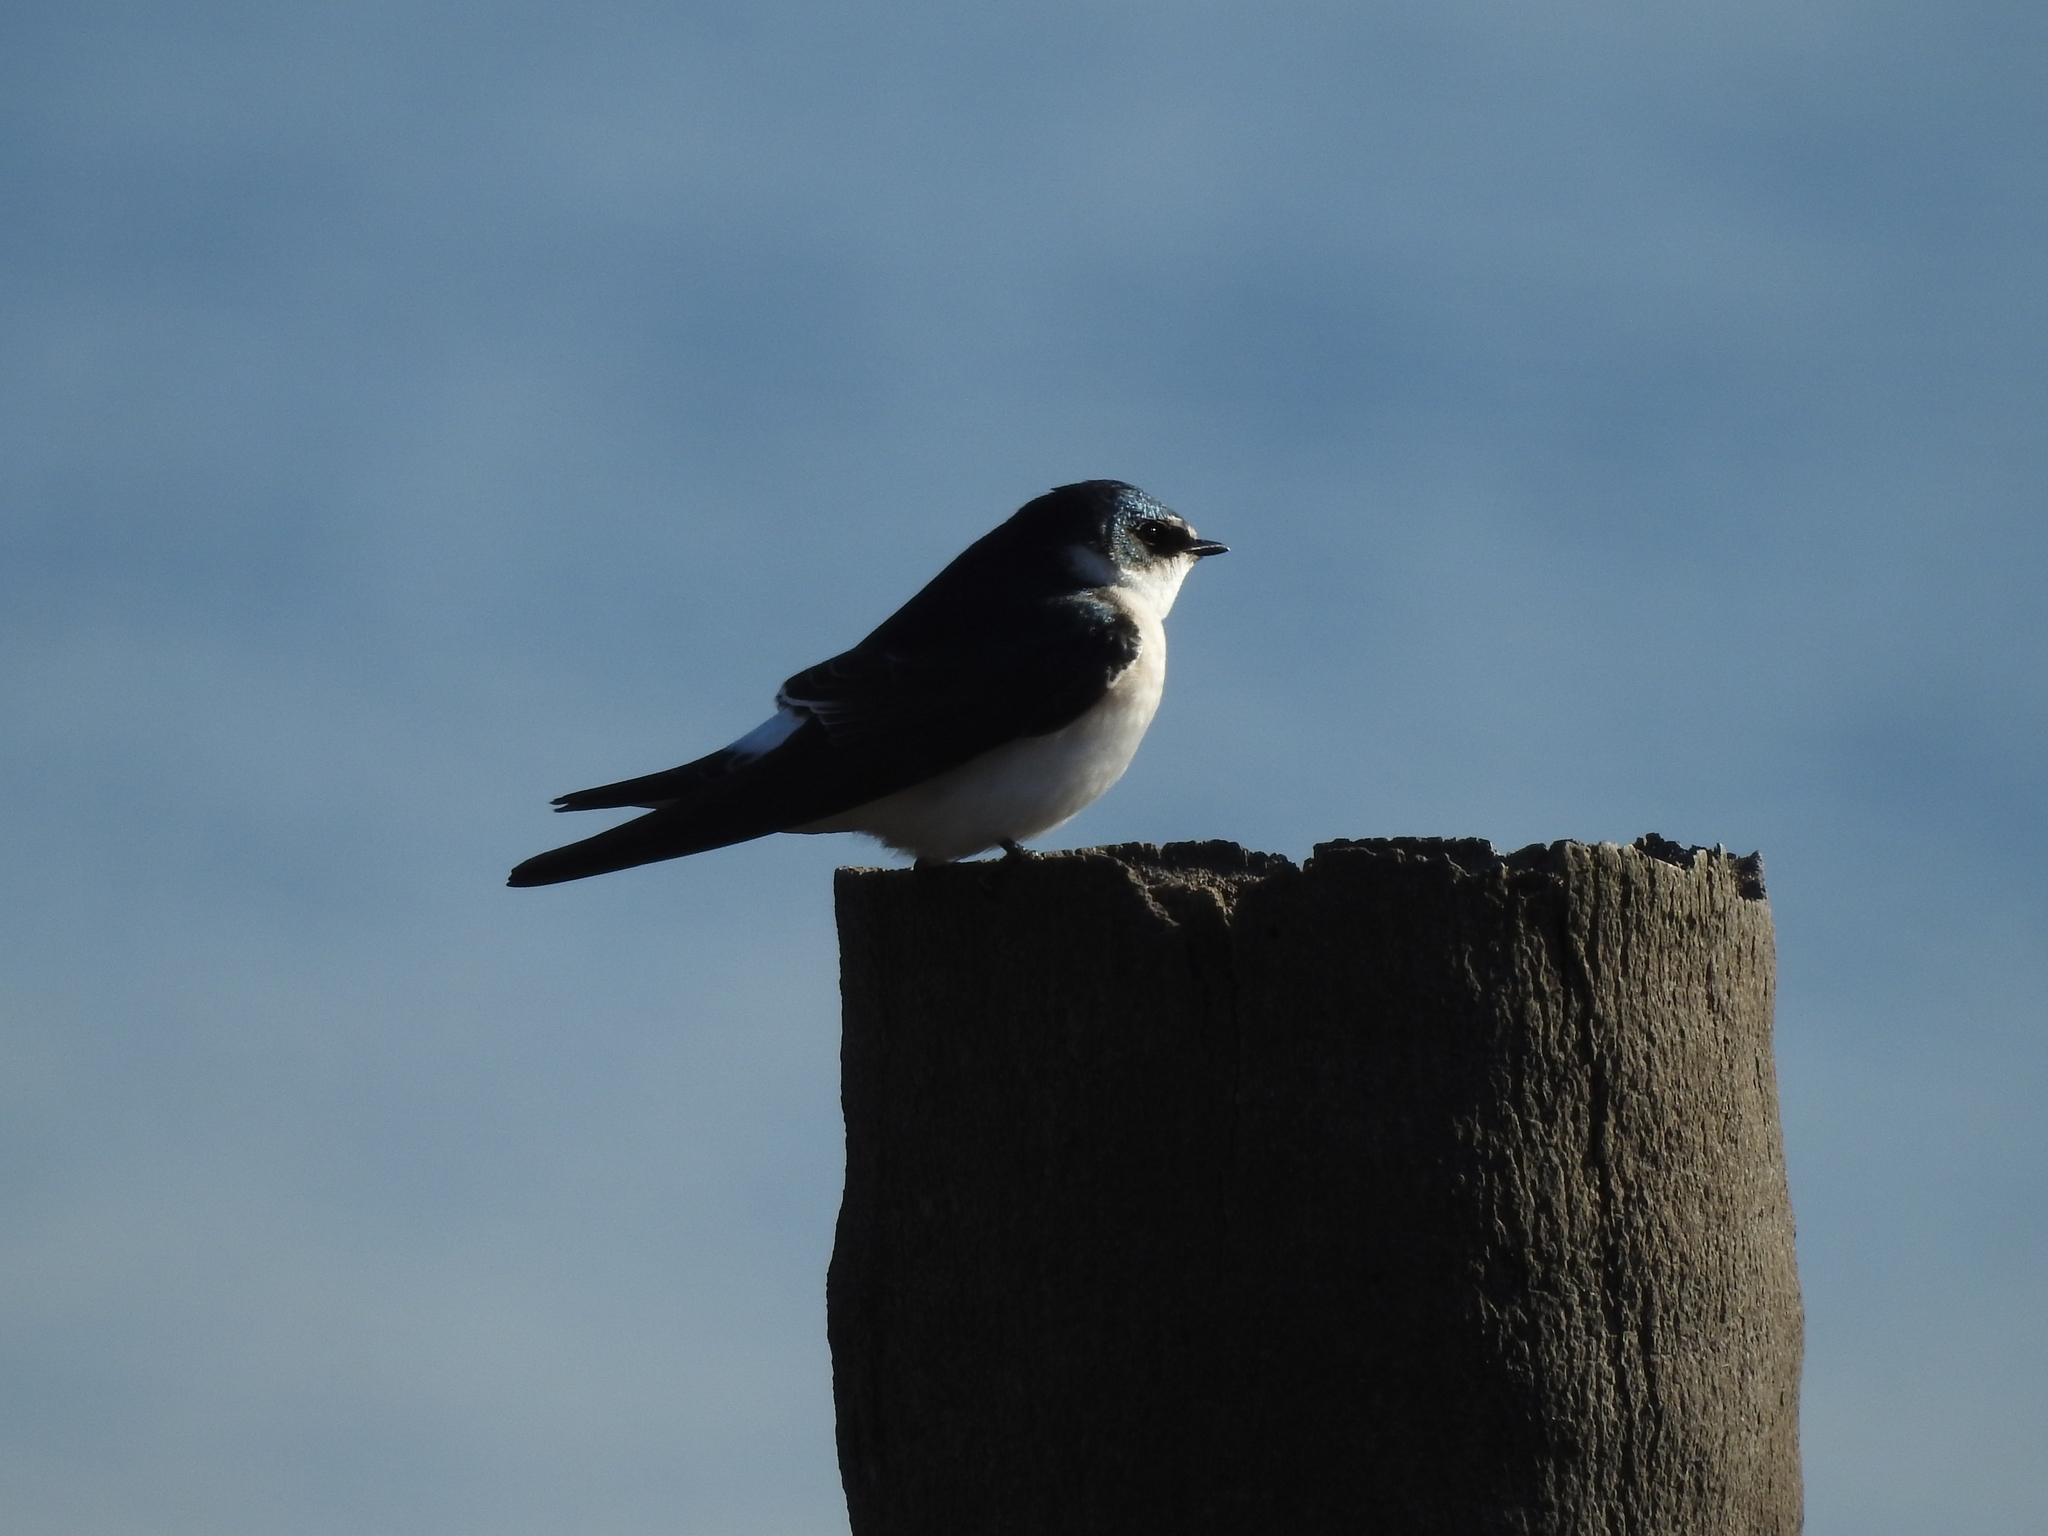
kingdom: Animalia
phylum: Chordata
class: Aves
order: Passeriformes
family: Hirundinidae
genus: Tachycineta
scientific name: Tachycineta leucorrhoa
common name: White-rumped swallow
